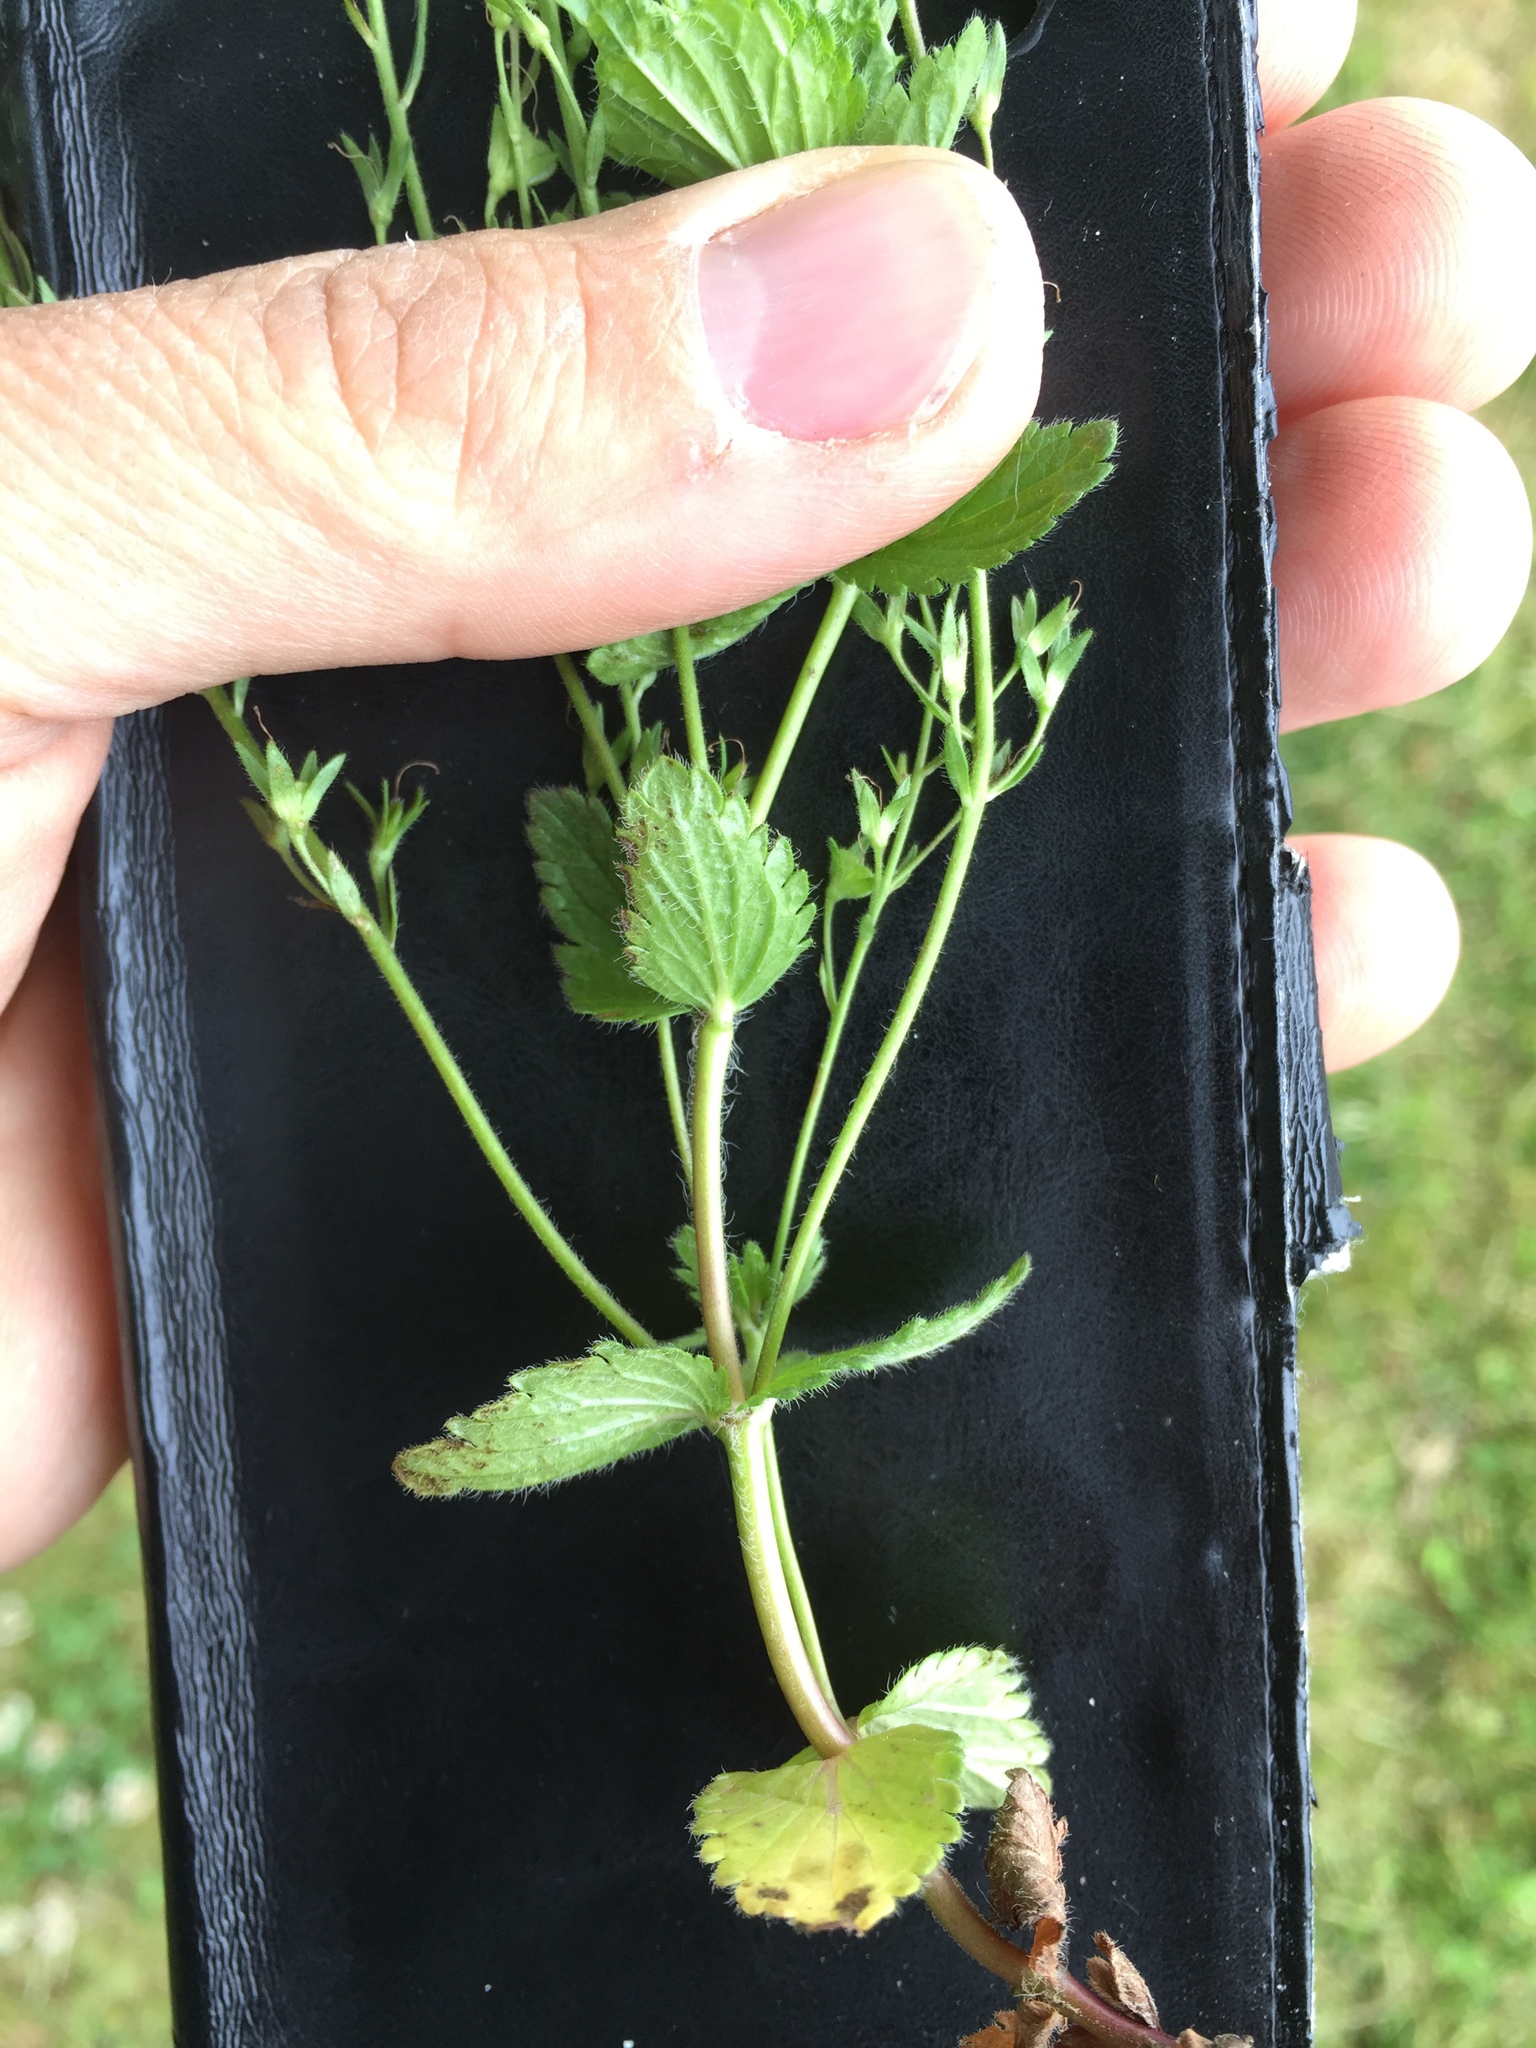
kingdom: Plantae
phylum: Tracheophyta
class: Magnoliopsida
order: Lamiales
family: Plantaginaceae
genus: Veronica
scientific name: Veronica chamaedrys
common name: Germander speedwell
